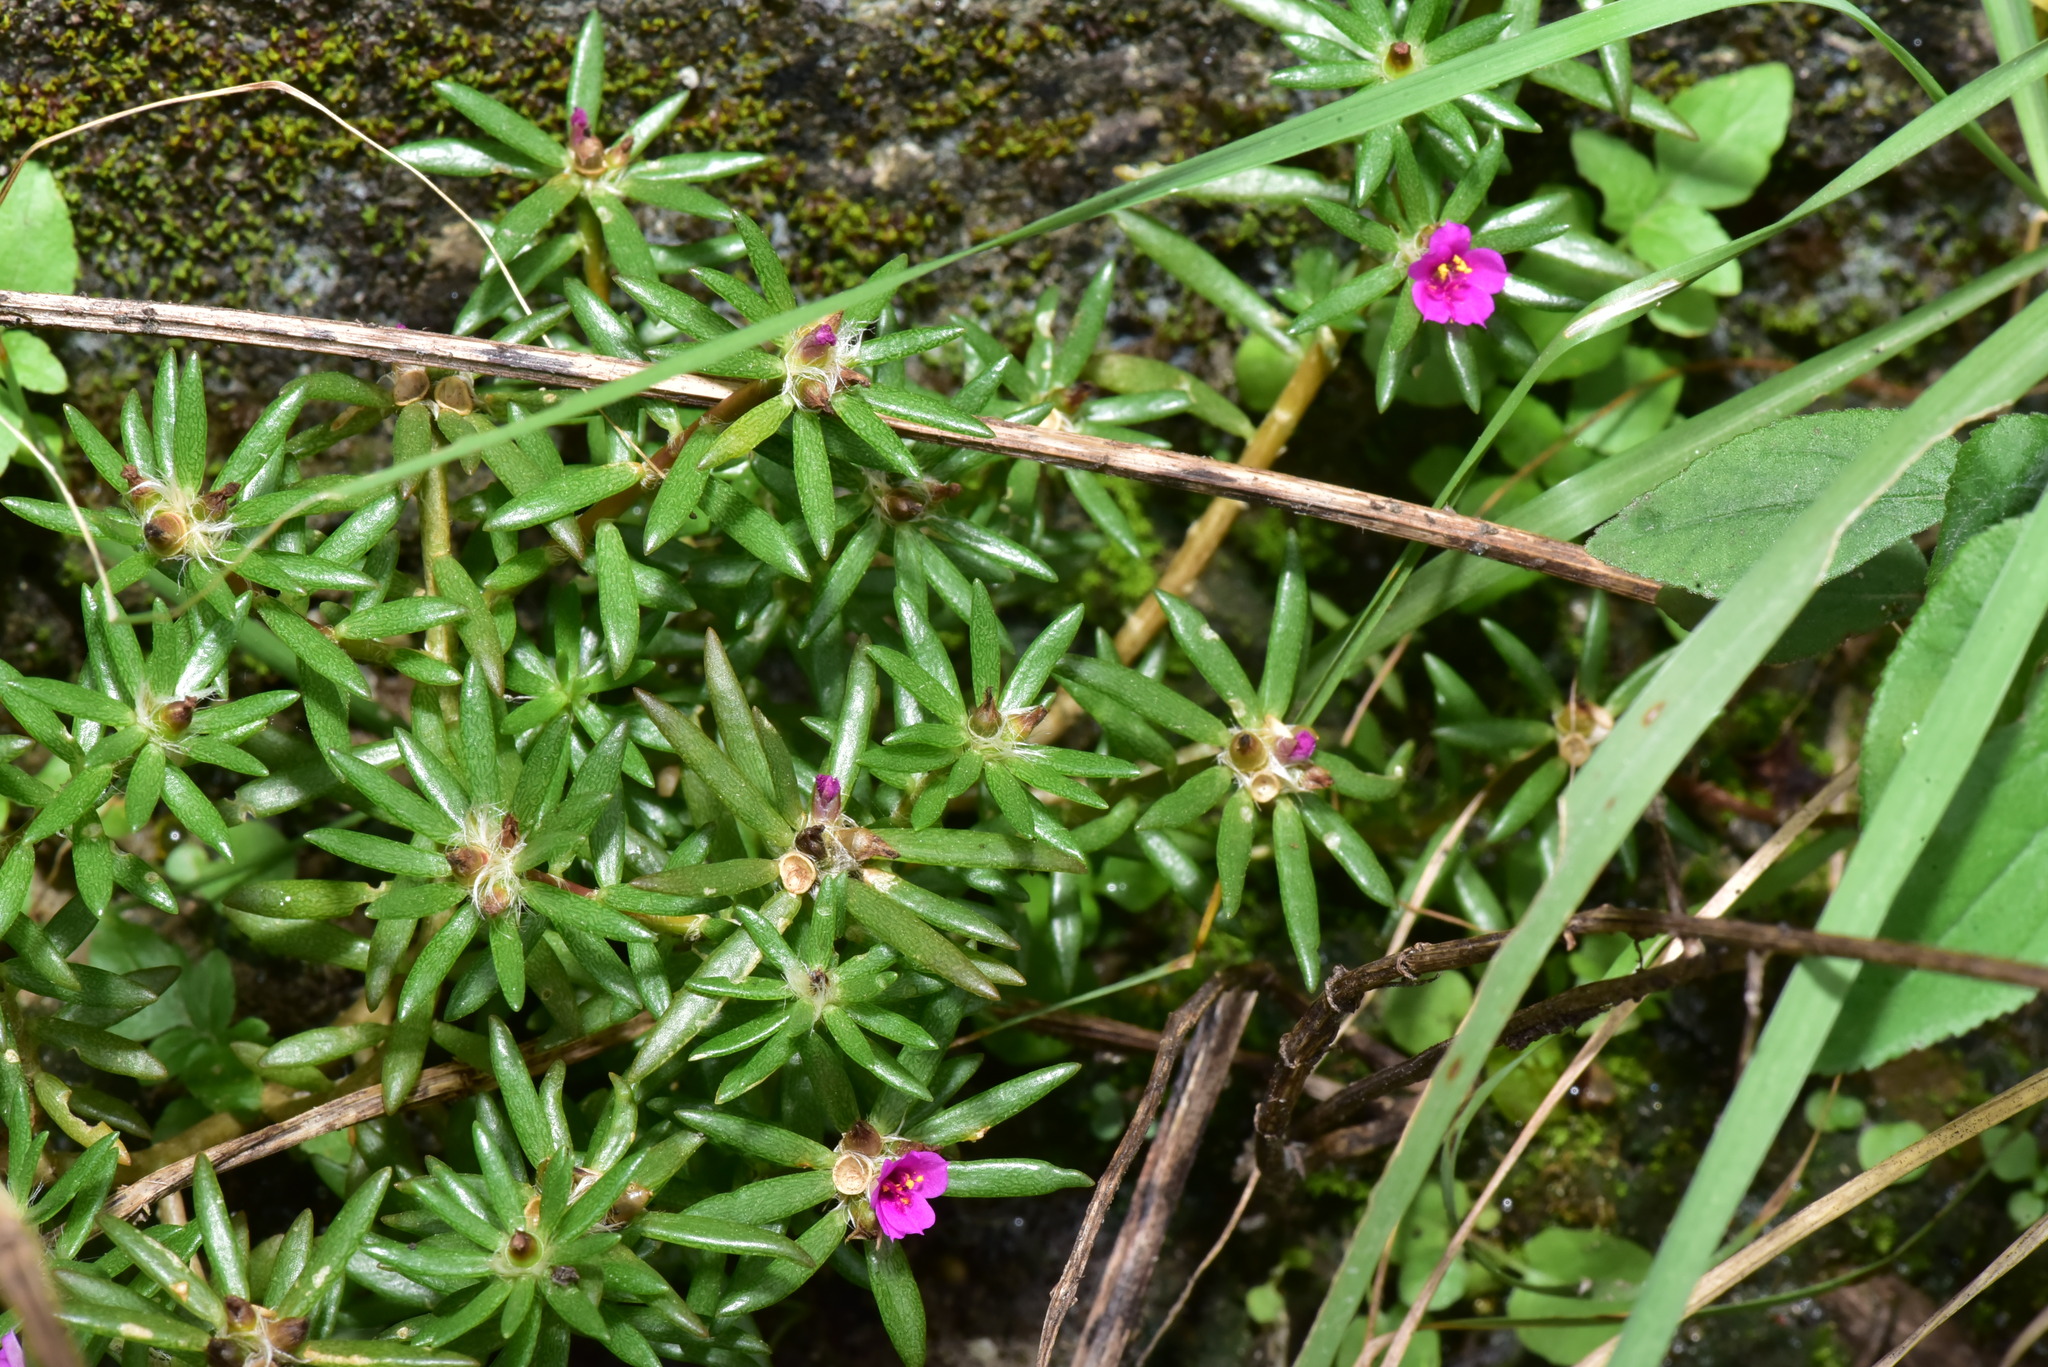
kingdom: Plantae
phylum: Tracheophyta
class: Magnoliopsida
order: Caryophyllales
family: Portulacaceae
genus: Portulaca
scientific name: Portulaca pilosa
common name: Kiss me quick
